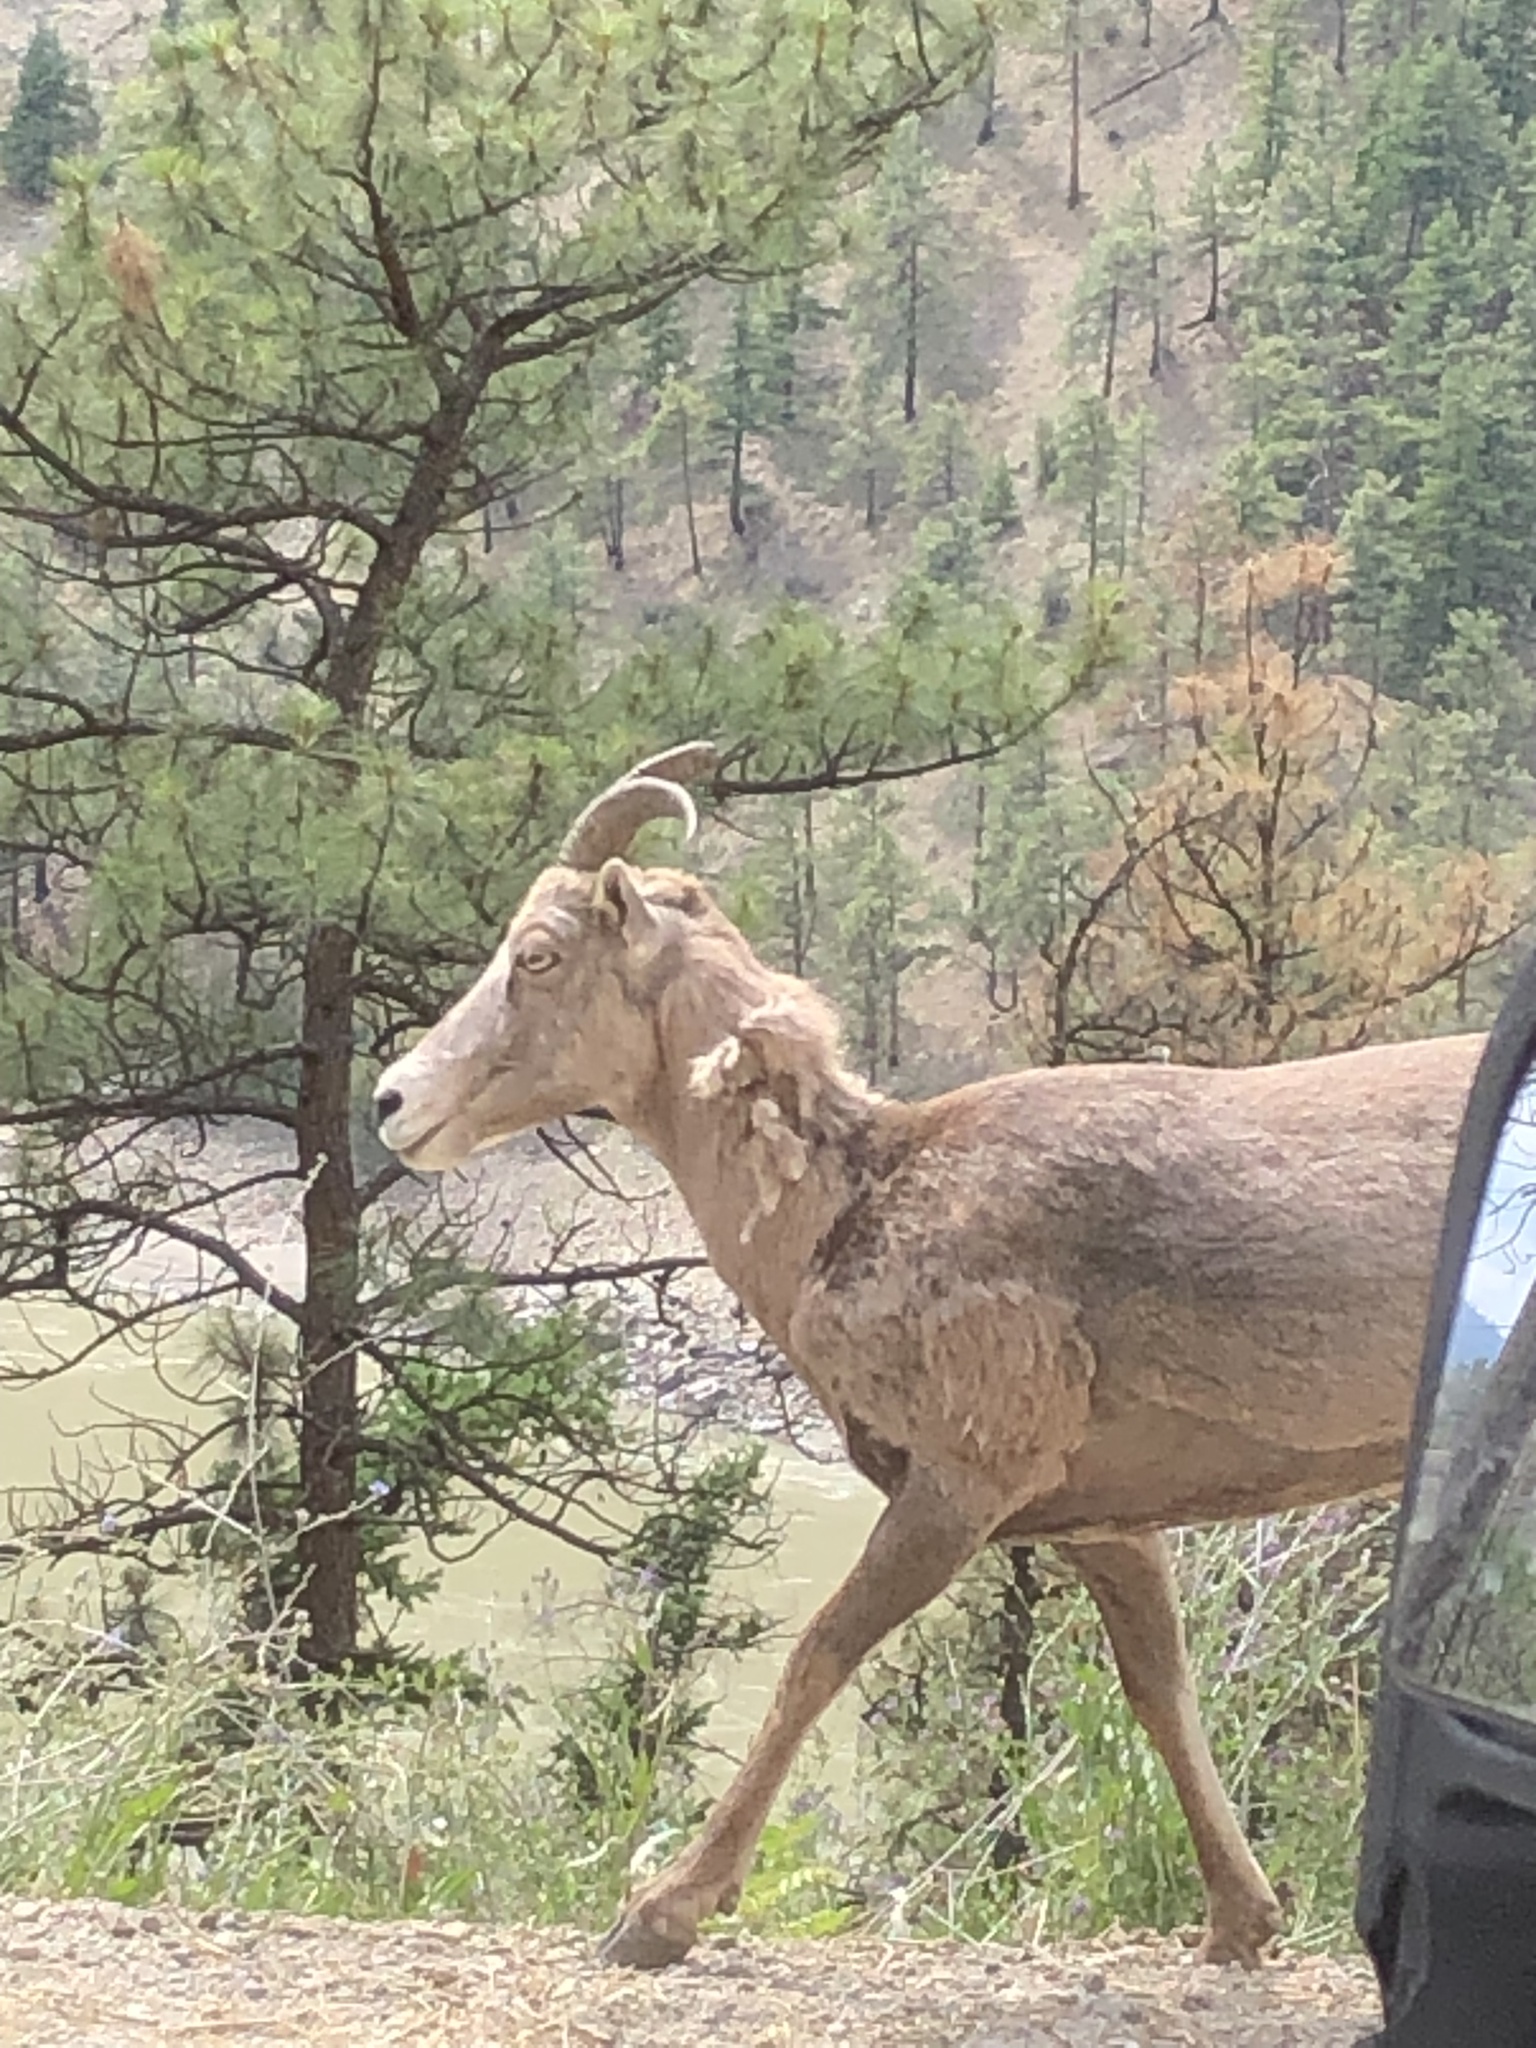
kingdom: Animalia
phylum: Chordata
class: Mammalia
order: Artiodactyla
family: Bovidae
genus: Ovis
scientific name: Ovis canadensis
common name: Bighorn sheep
